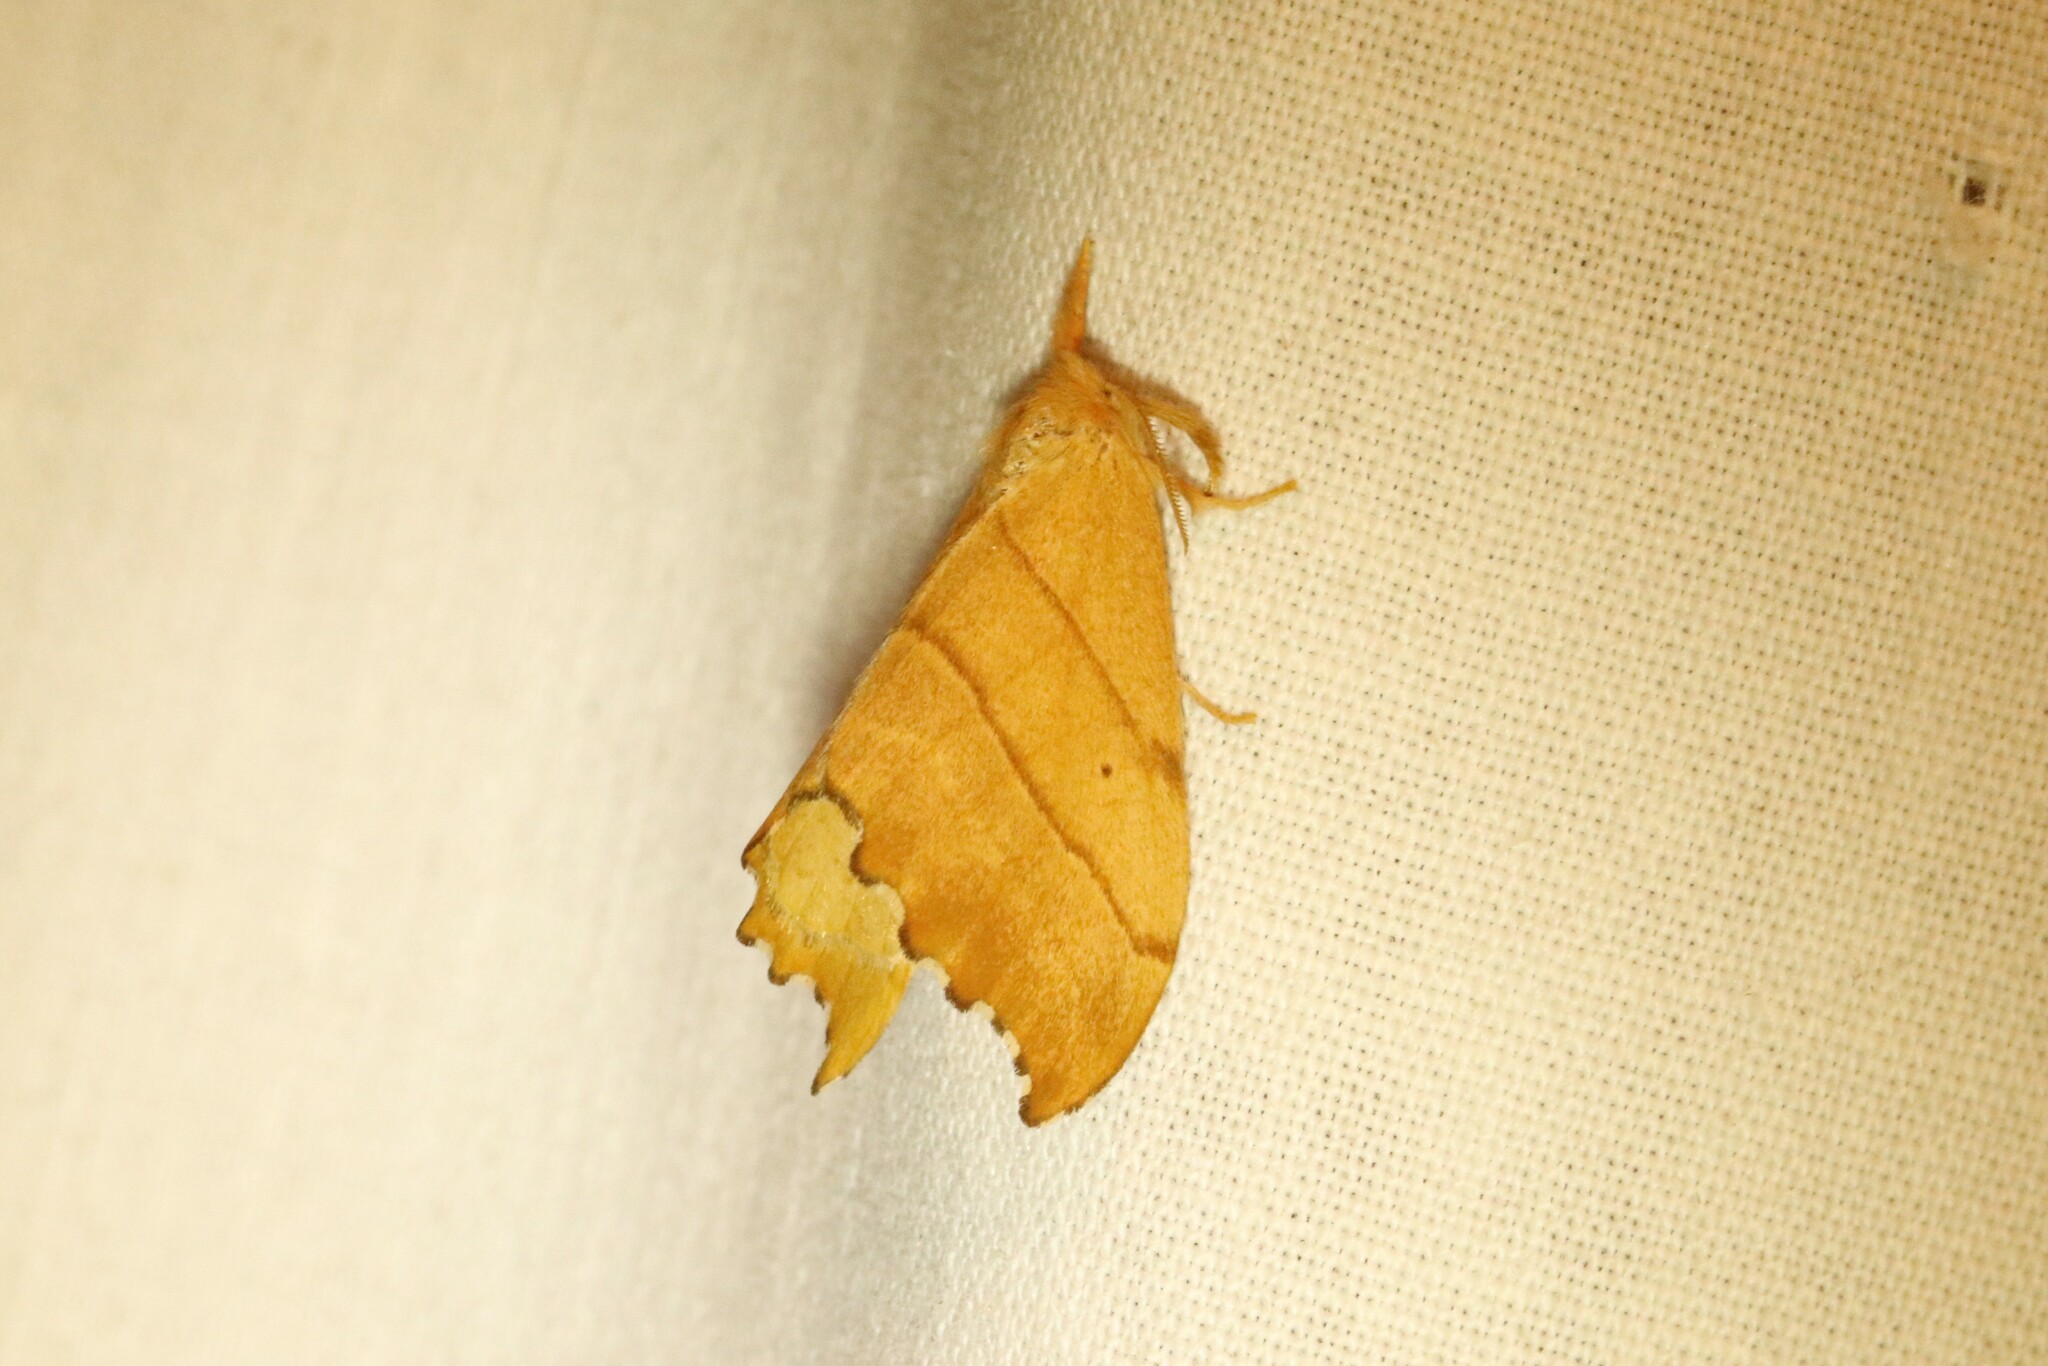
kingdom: Animalia
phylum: Arthropoda
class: Insecta
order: Lepidoptera
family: Drepanidae
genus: Falcaria
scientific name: Falcaria bilineata
